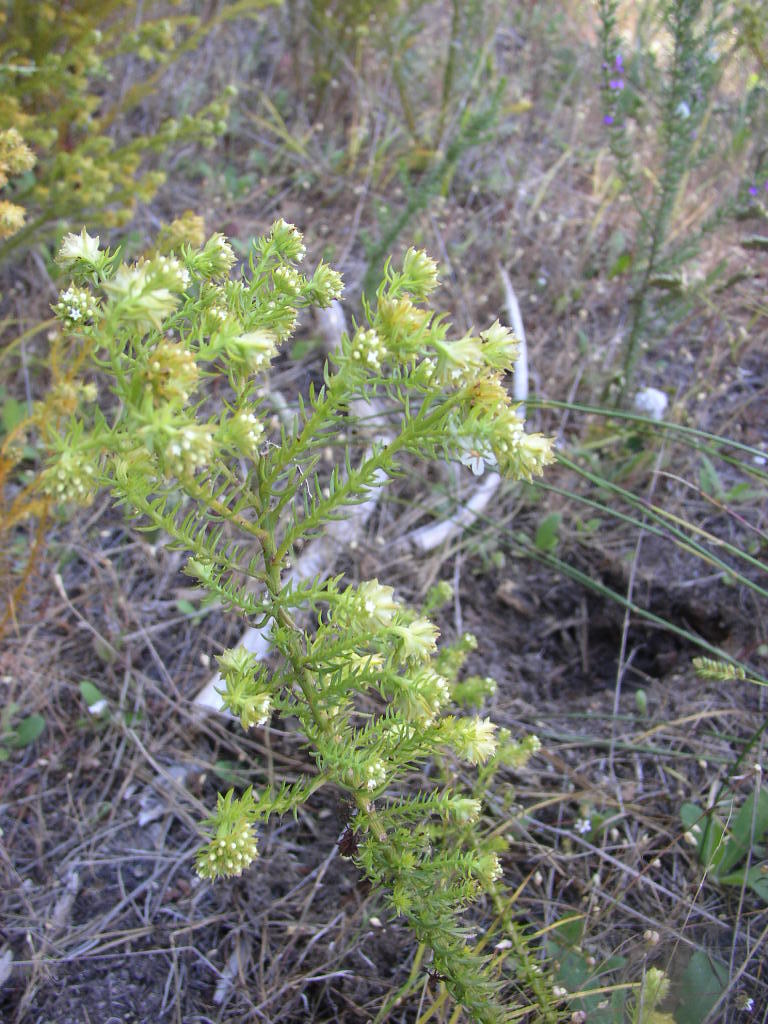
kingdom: Plantae
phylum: Tracheophyta
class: Magnoliopsida
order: Santalales
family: Thesiaceae
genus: Thesium
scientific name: Thesium scabrum
